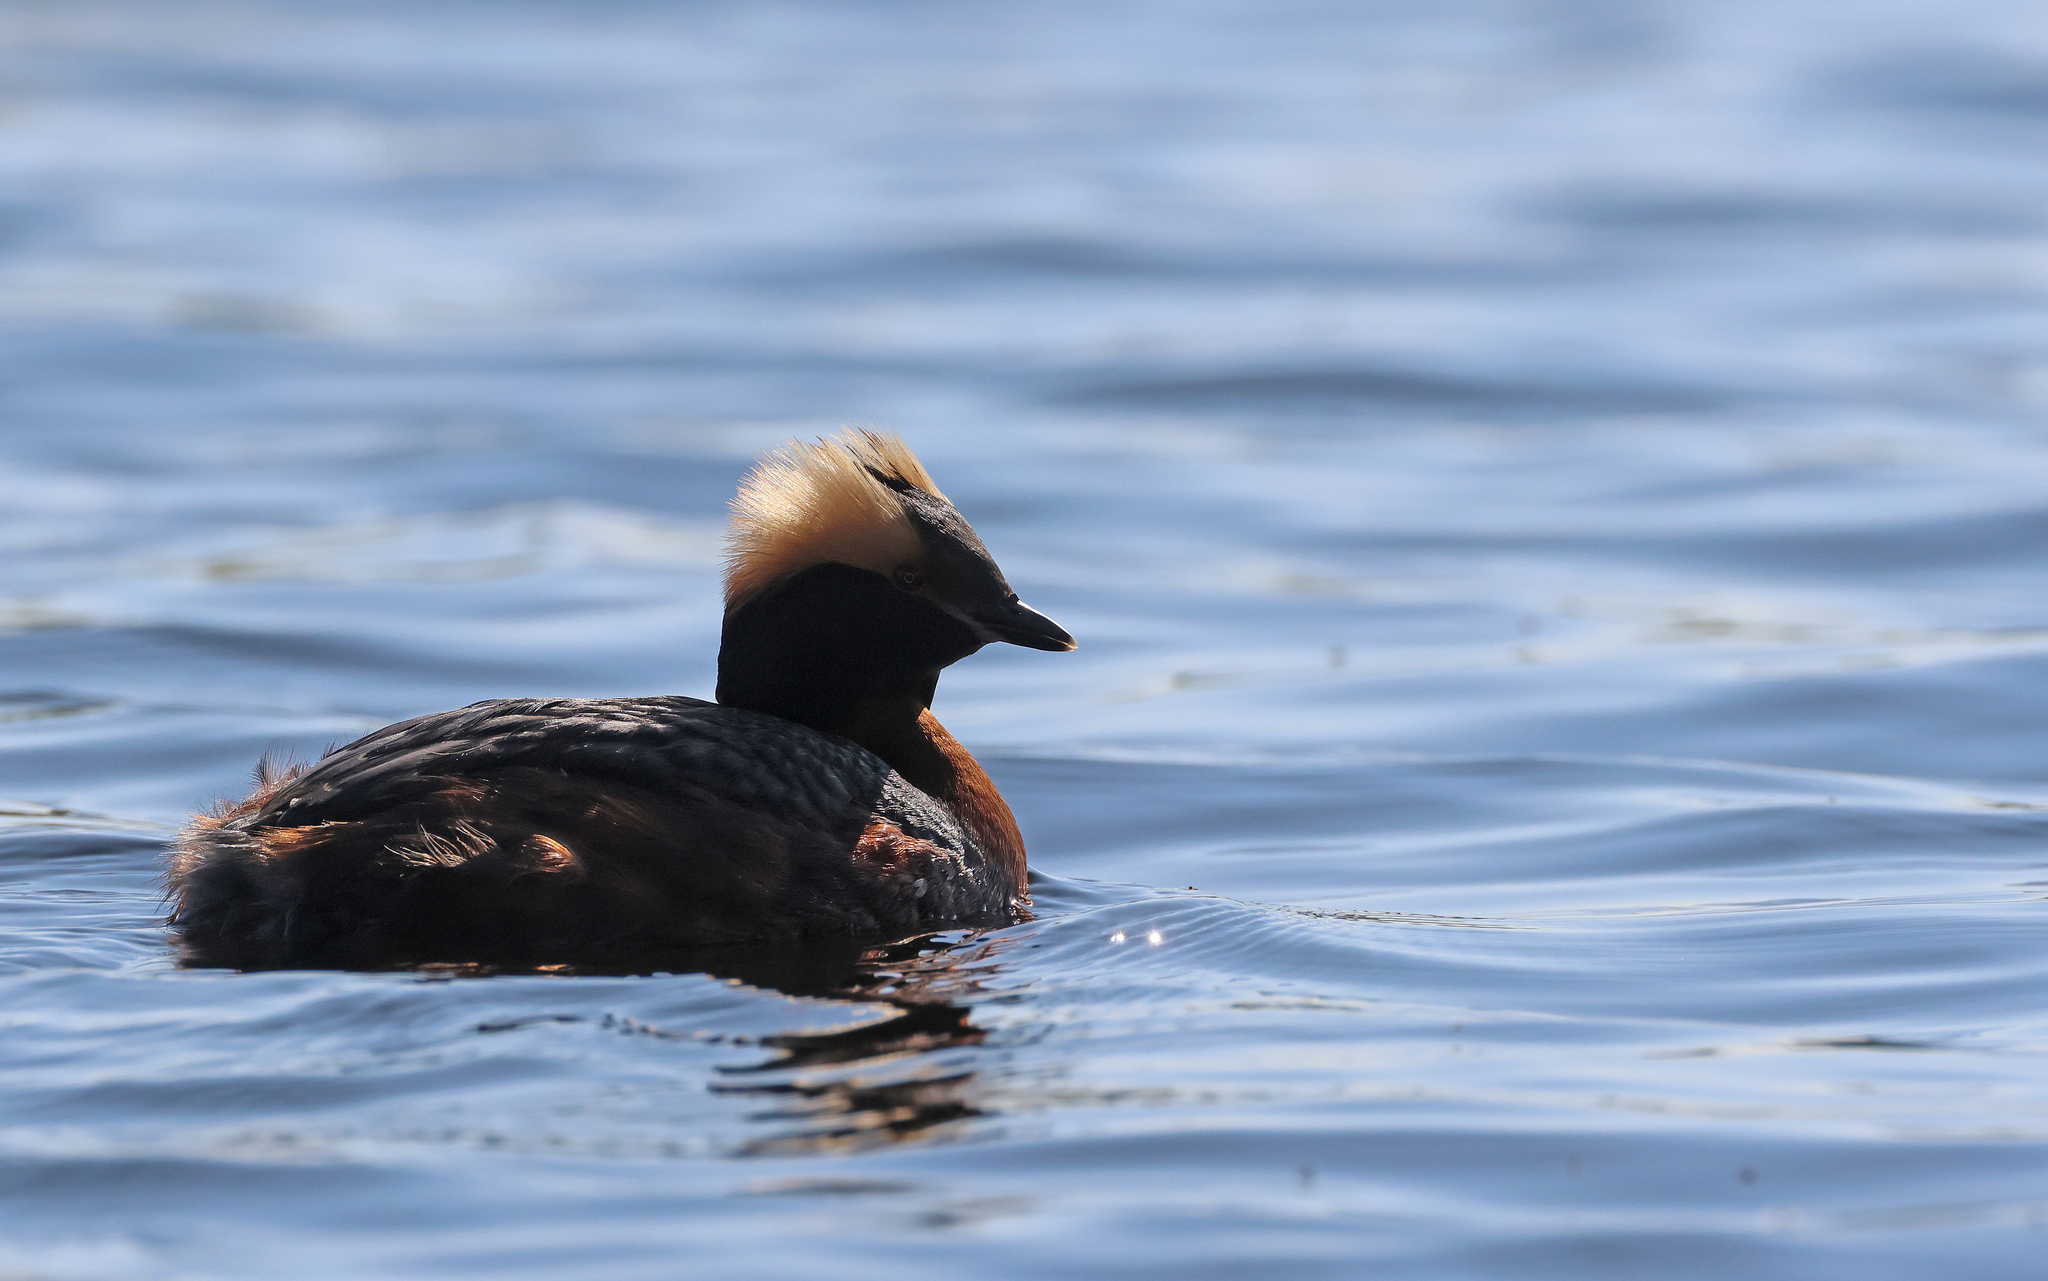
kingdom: Animalia
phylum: Chordata
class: Aves
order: Podicipediformes
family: Podicipedidae
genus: Podiceps
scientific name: Podiceps auritus
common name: Horned grebe
